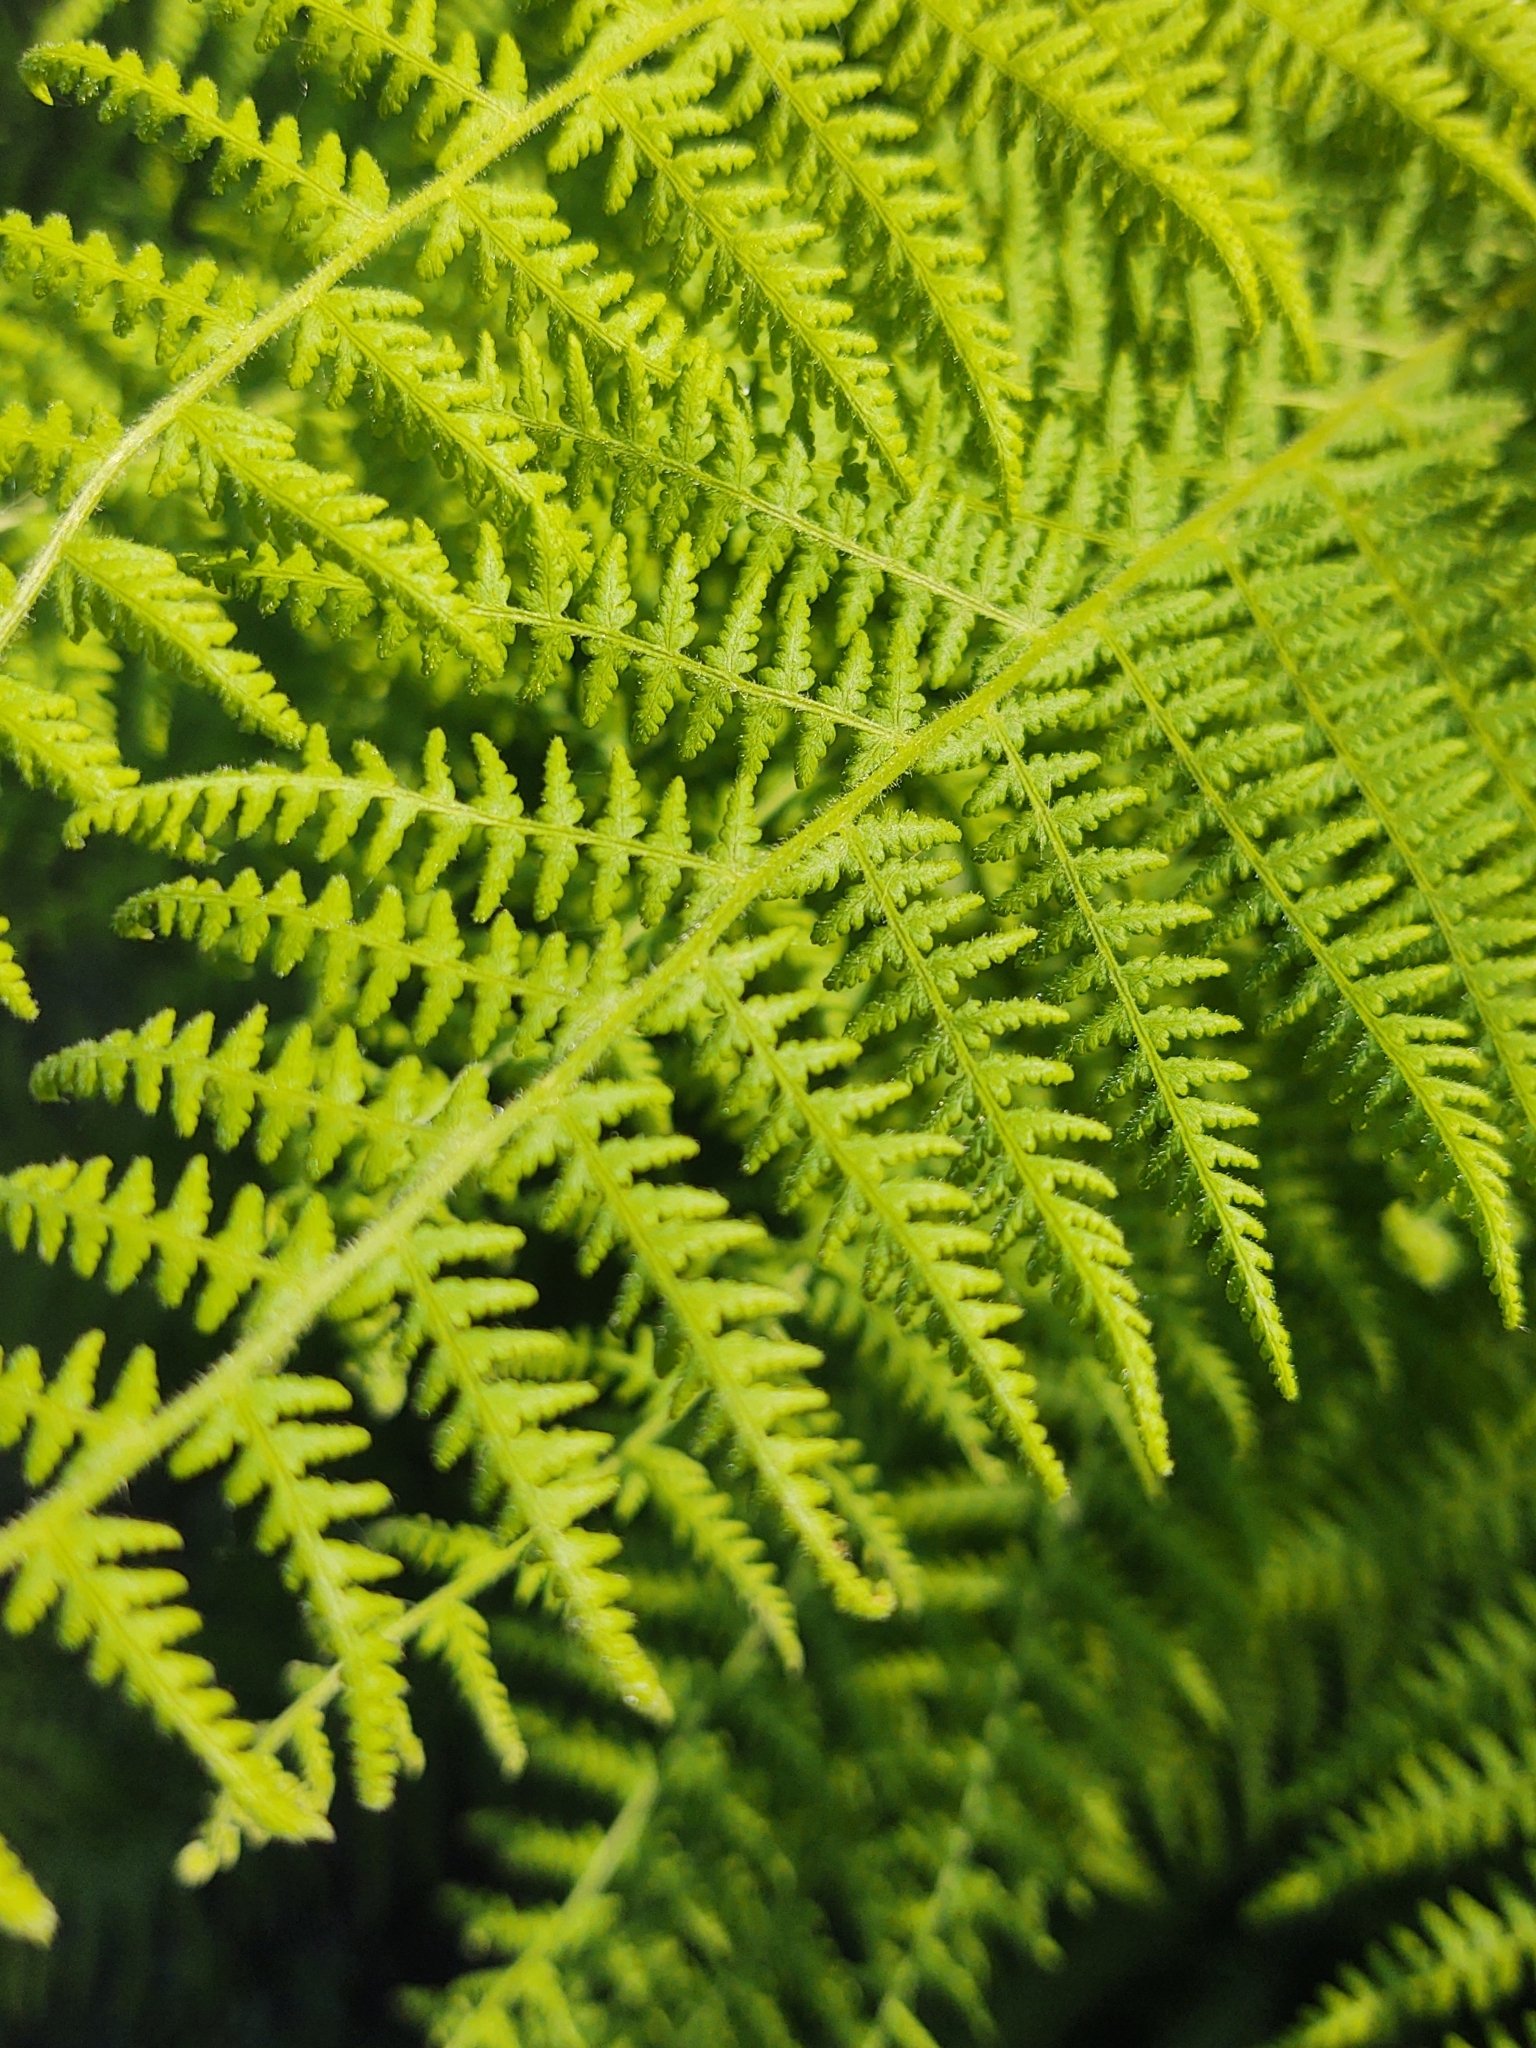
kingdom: Plantae
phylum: Tracheophyta
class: Polypodiopsida
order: Polypodiales
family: Dennstaedtiaceae
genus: Sitobolium
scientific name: Sitobolium punctilobum
